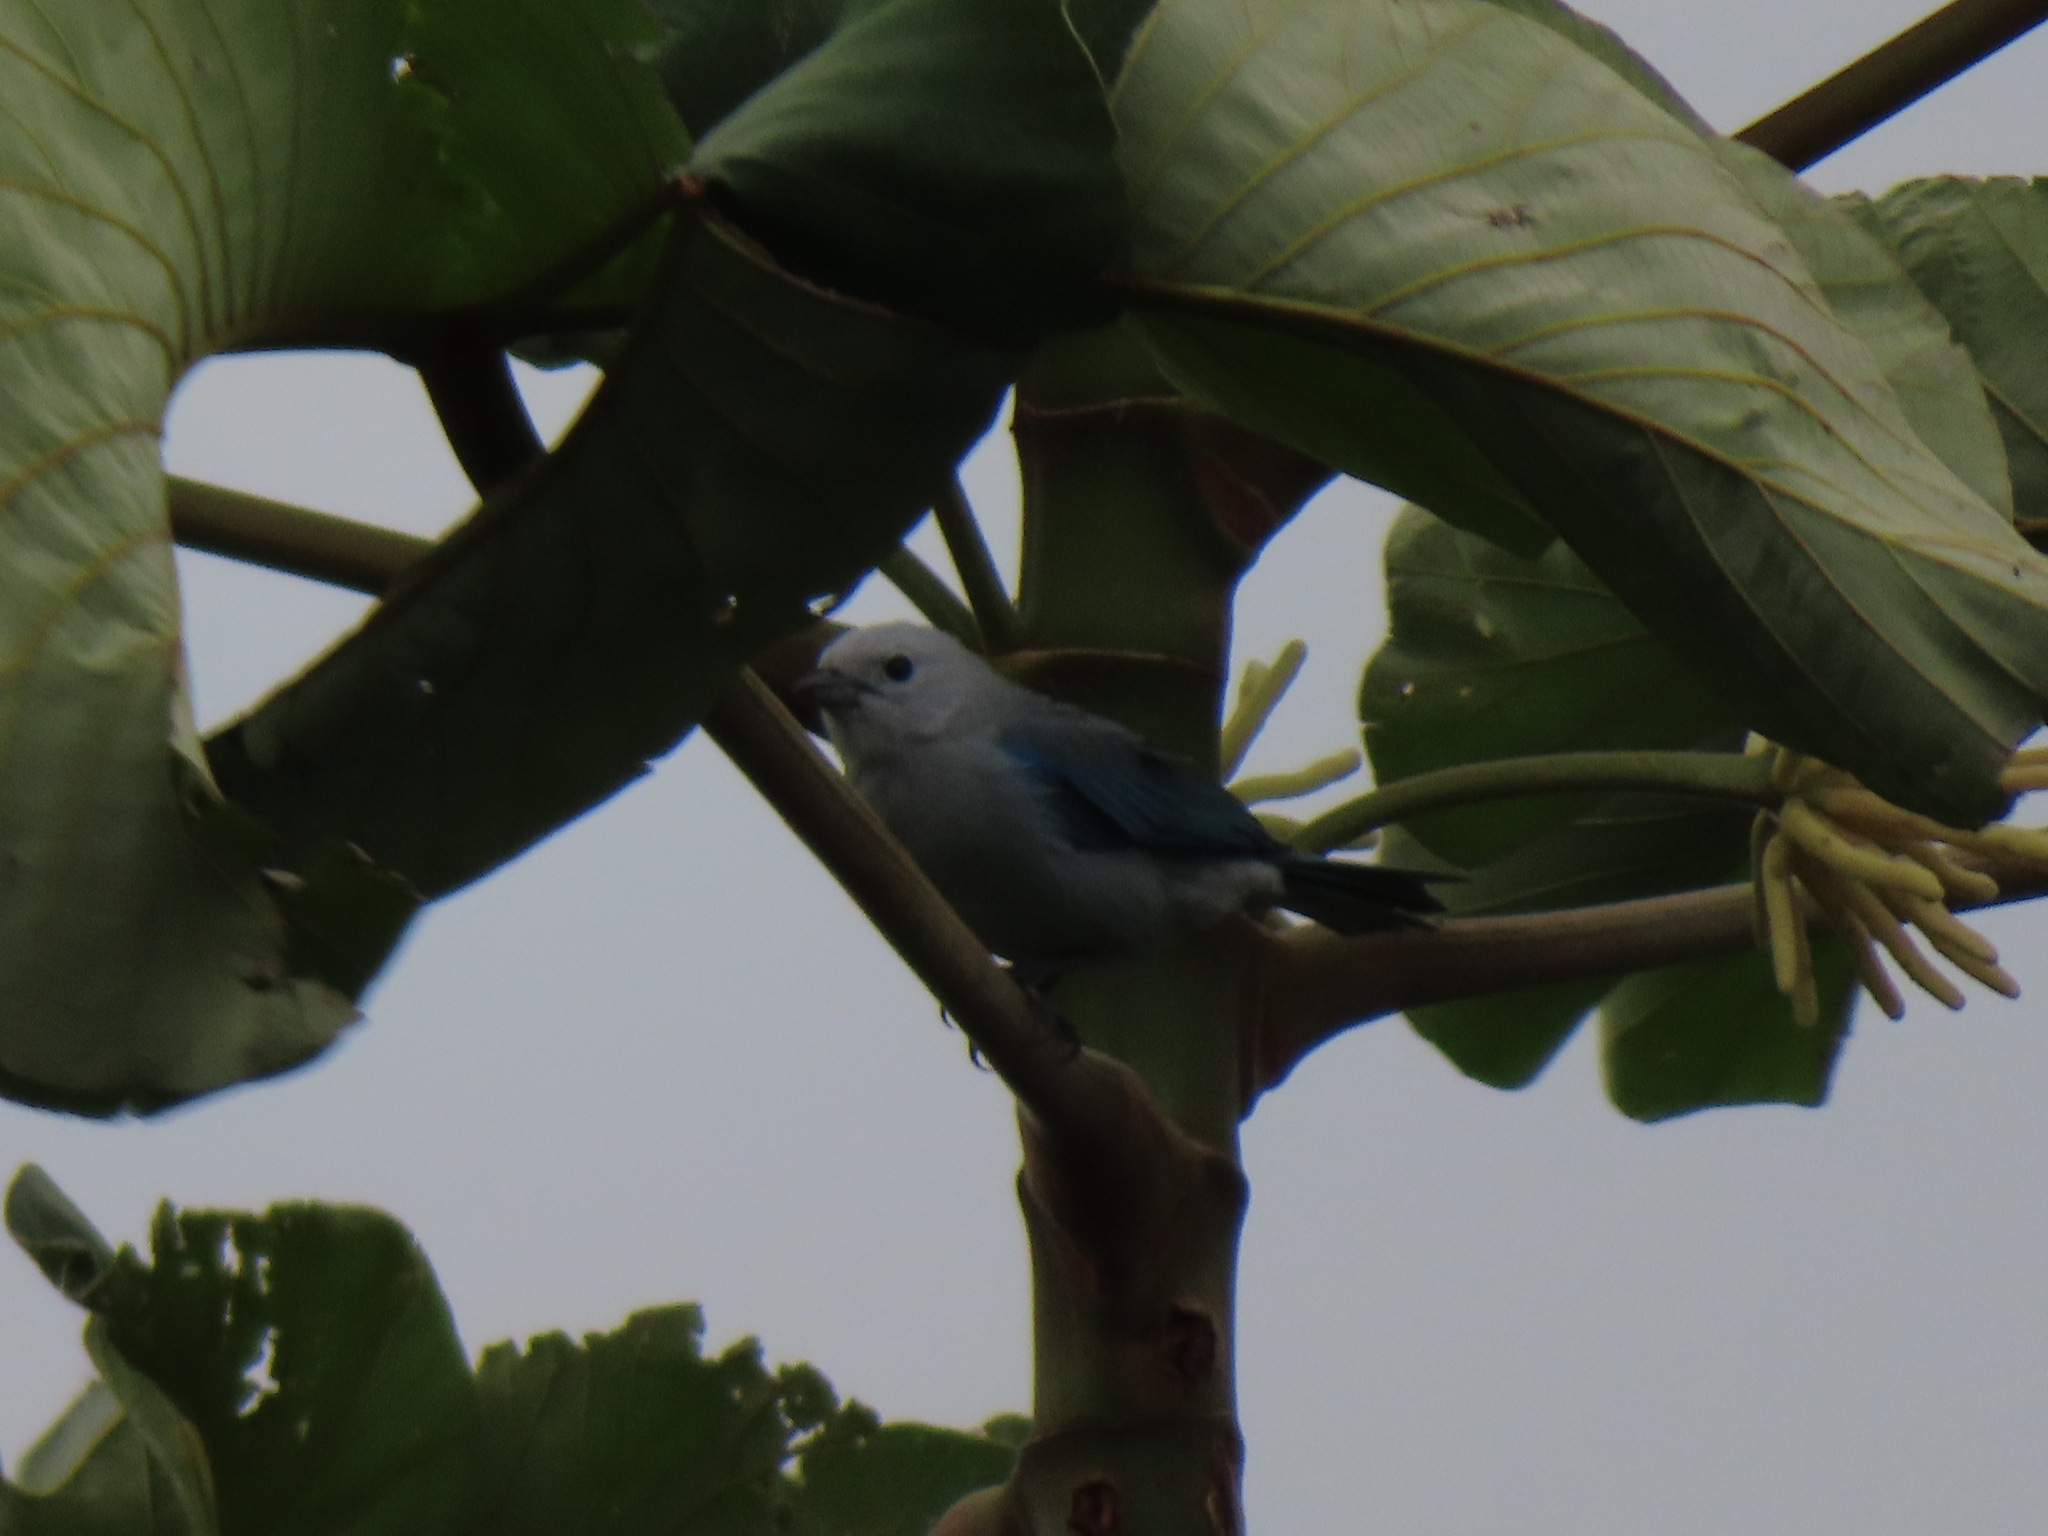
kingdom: Animalia
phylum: Chordata
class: Aves
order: Passeriformes
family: Thraupidae
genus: Thraupis
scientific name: Thraupis episcopus
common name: Blue-grey tanager
